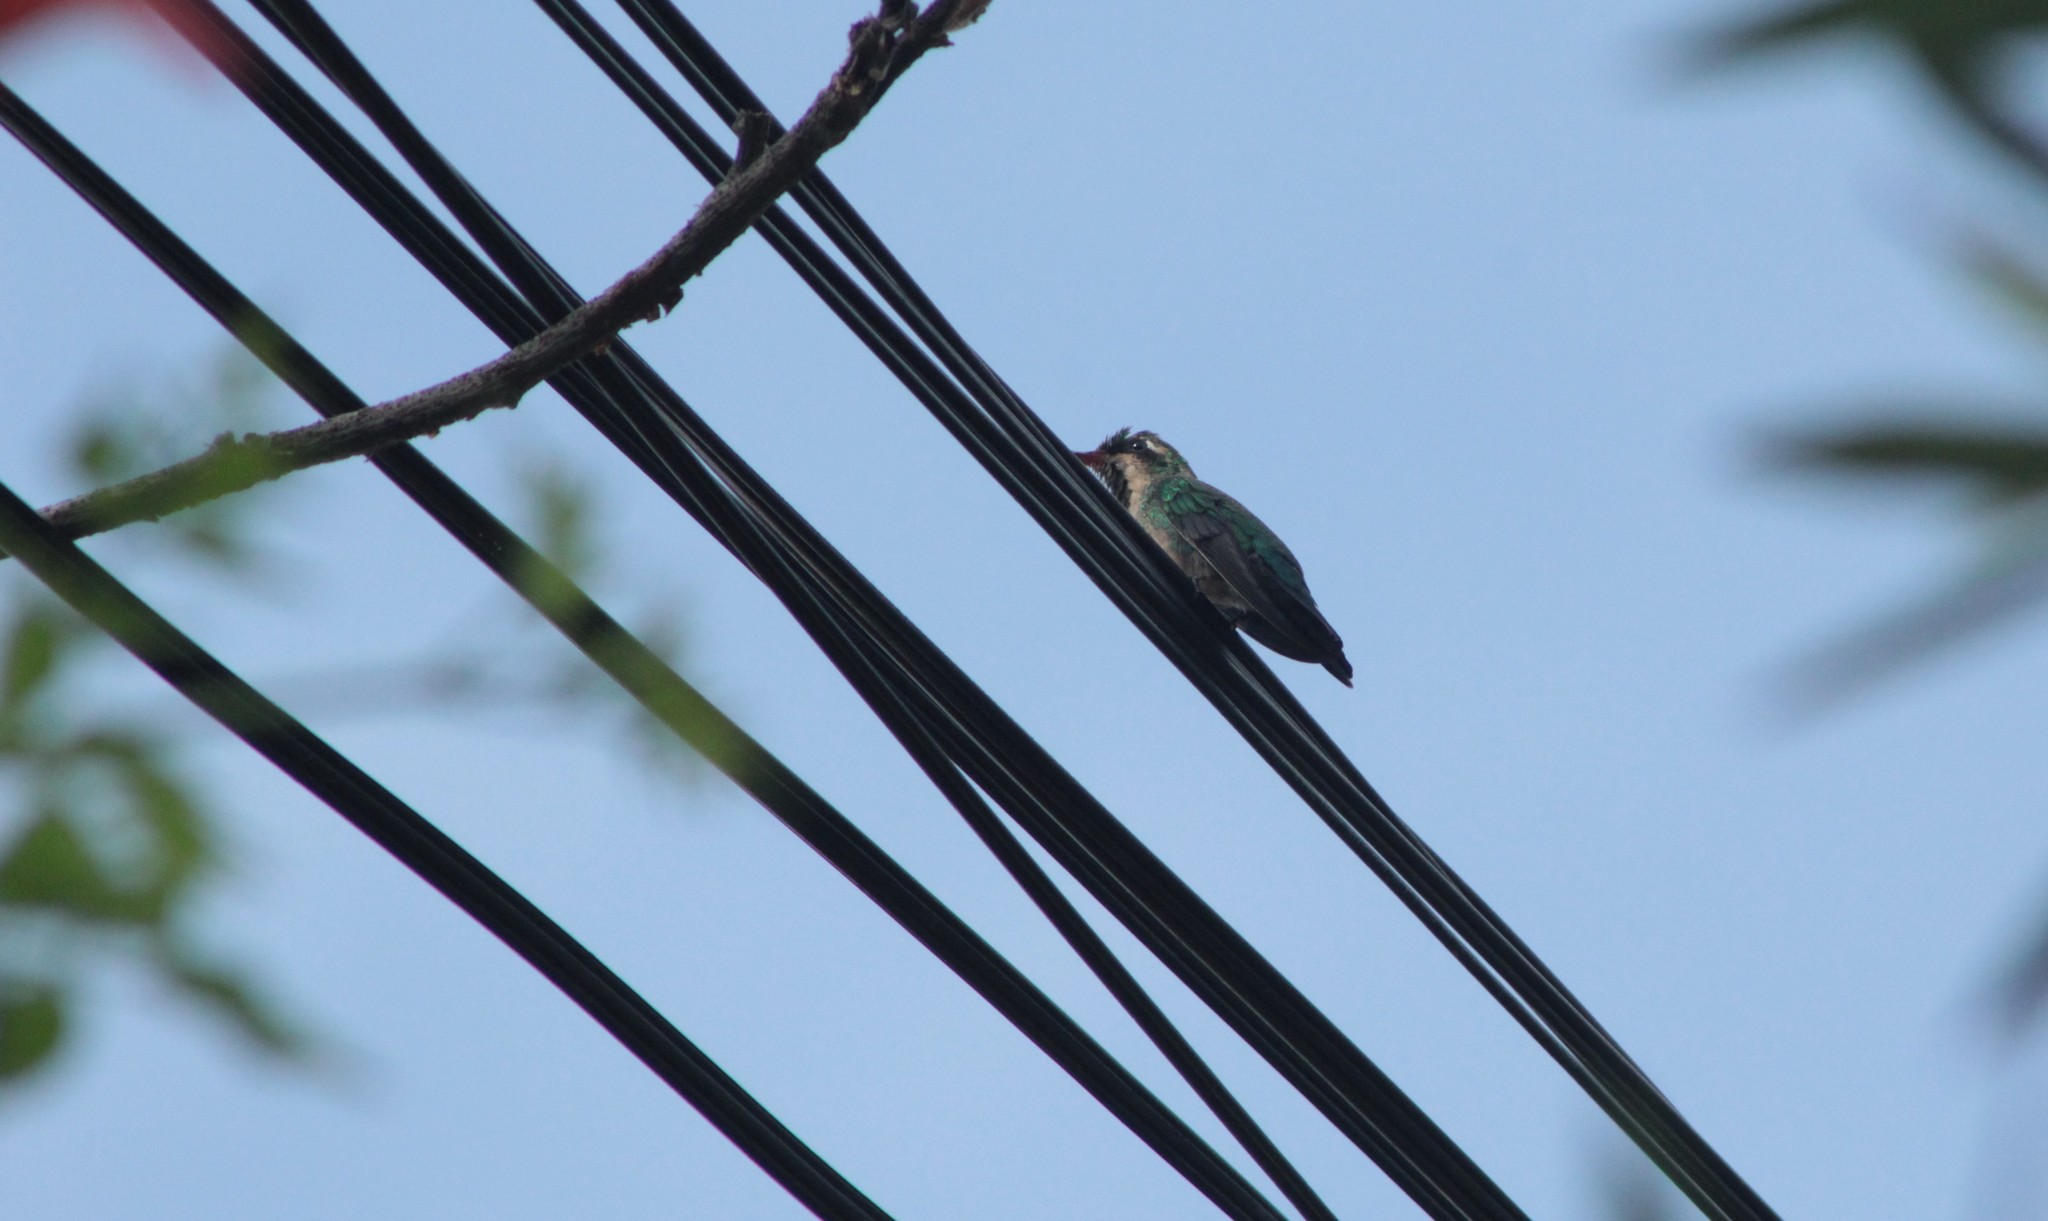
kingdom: Animalia
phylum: Chordata
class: Aves
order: Apodiformes
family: Trochilidae
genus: Chlorostilbon
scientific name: Chlorostilbon lucidus
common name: Glittering-bellied emerald
